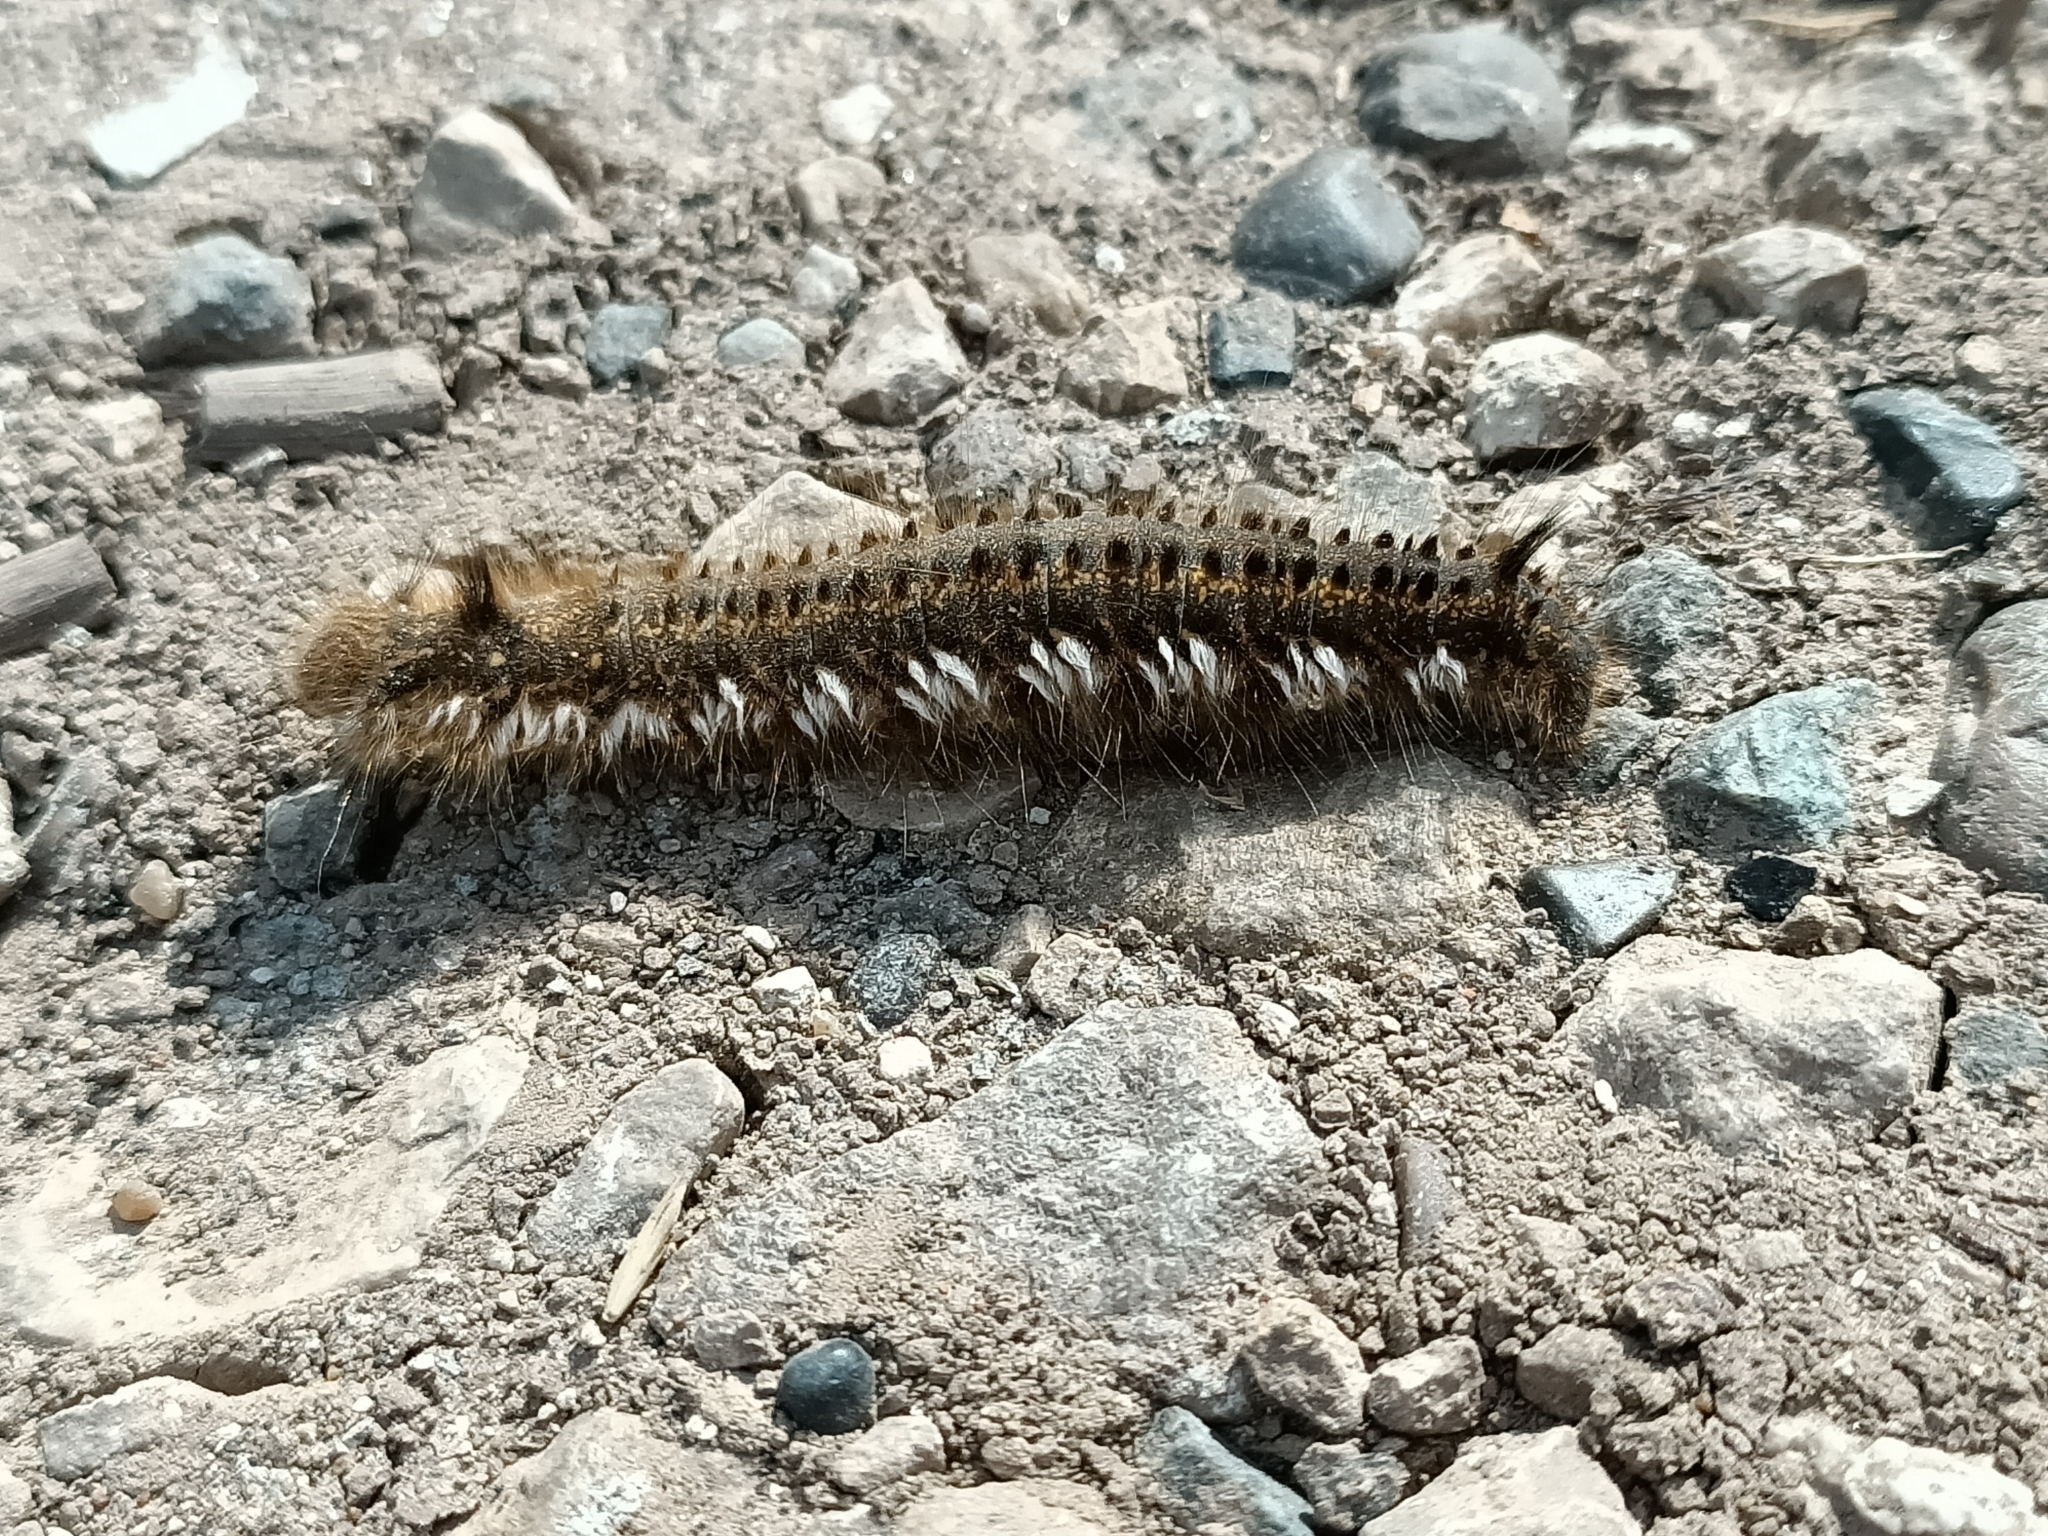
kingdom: Animalia
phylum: Arthropoda
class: Insecta
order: Lepidoptera
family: Lasiocampidae
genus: Euthrix
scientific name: Euthrix potatoria
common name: Drinker
